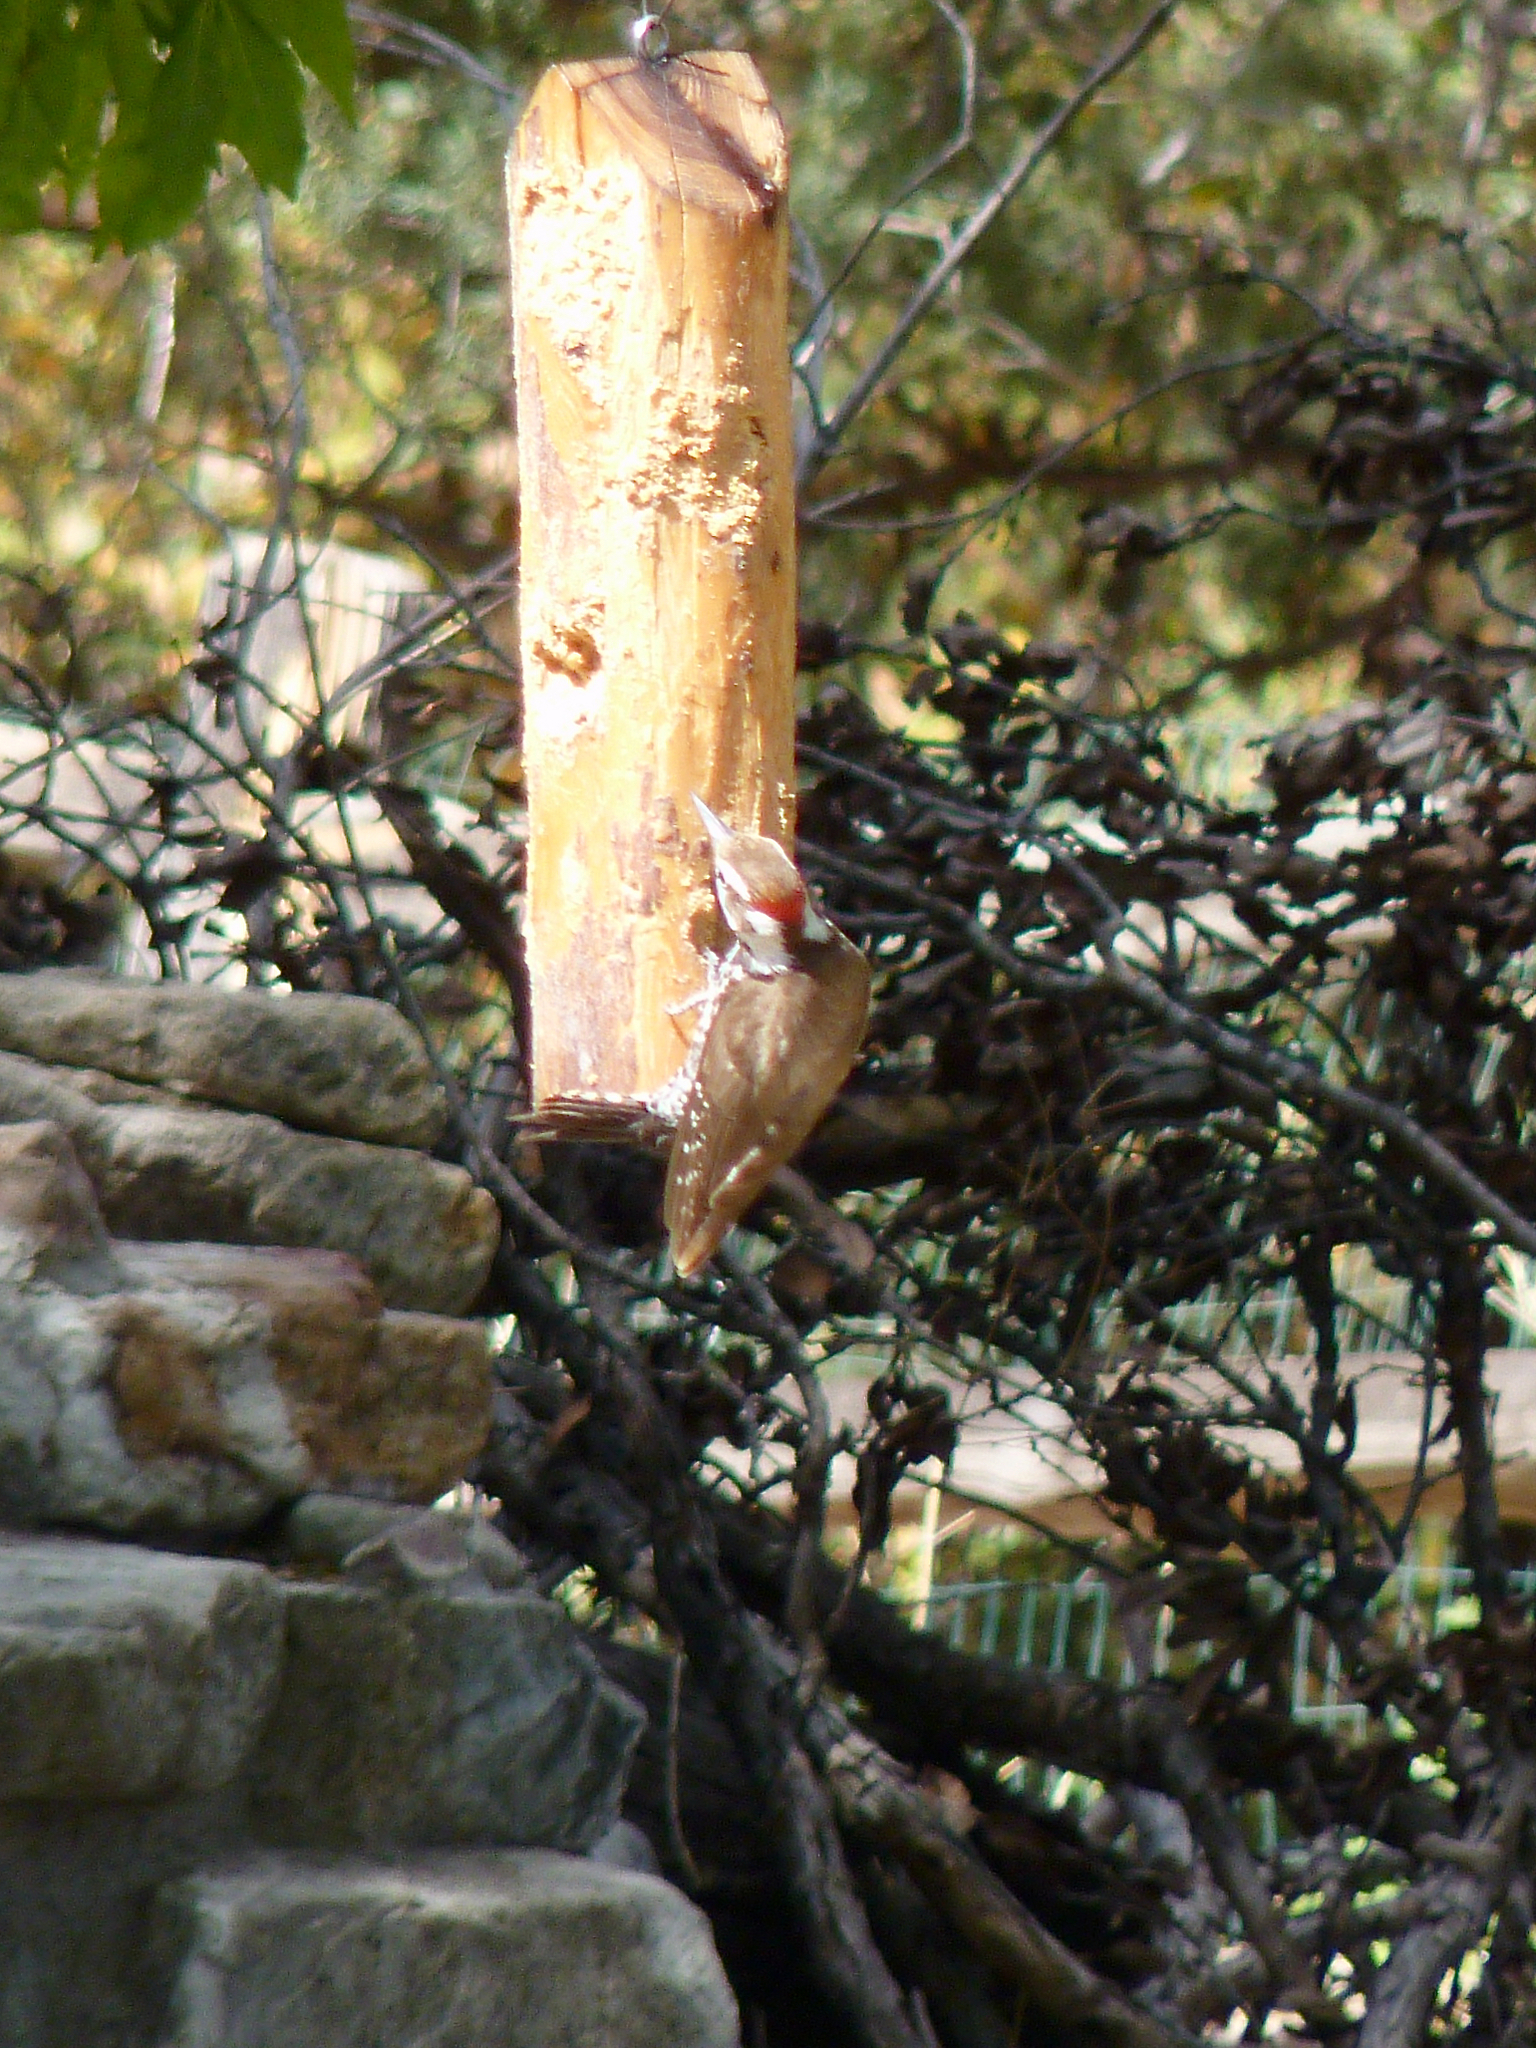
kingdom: Animalia
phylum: Chordata
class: Aves
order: Piciformes
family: Picidae
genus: Leuconotopicus
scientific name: Leuconotopicus arizonae
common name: Arizona woodpecker
